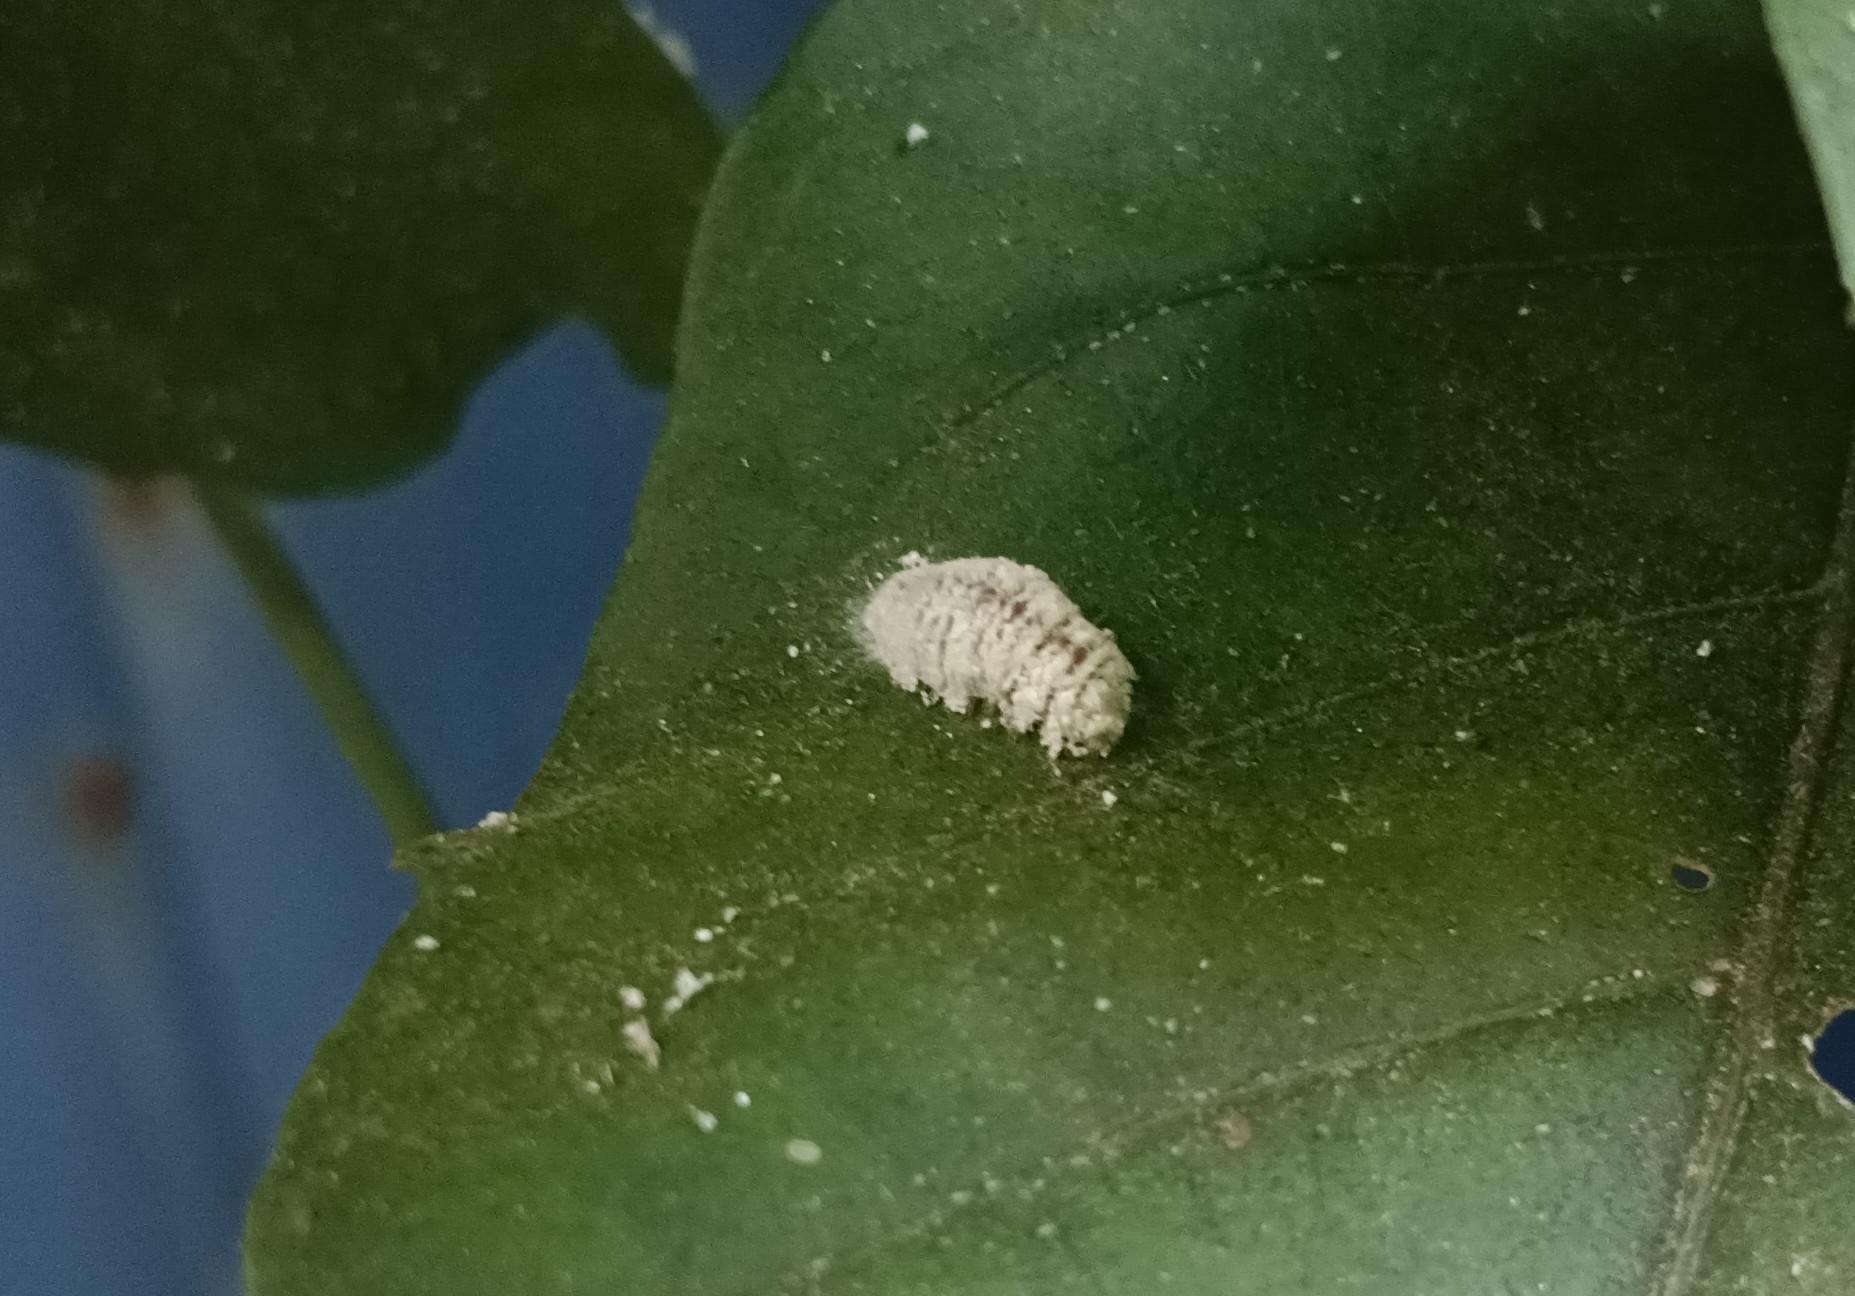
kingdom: Animalia
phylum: Arthropoda
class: Insecta
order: Lepidoptera
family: Lycaenidae
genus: Spalgis
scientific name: Spalgis epius
